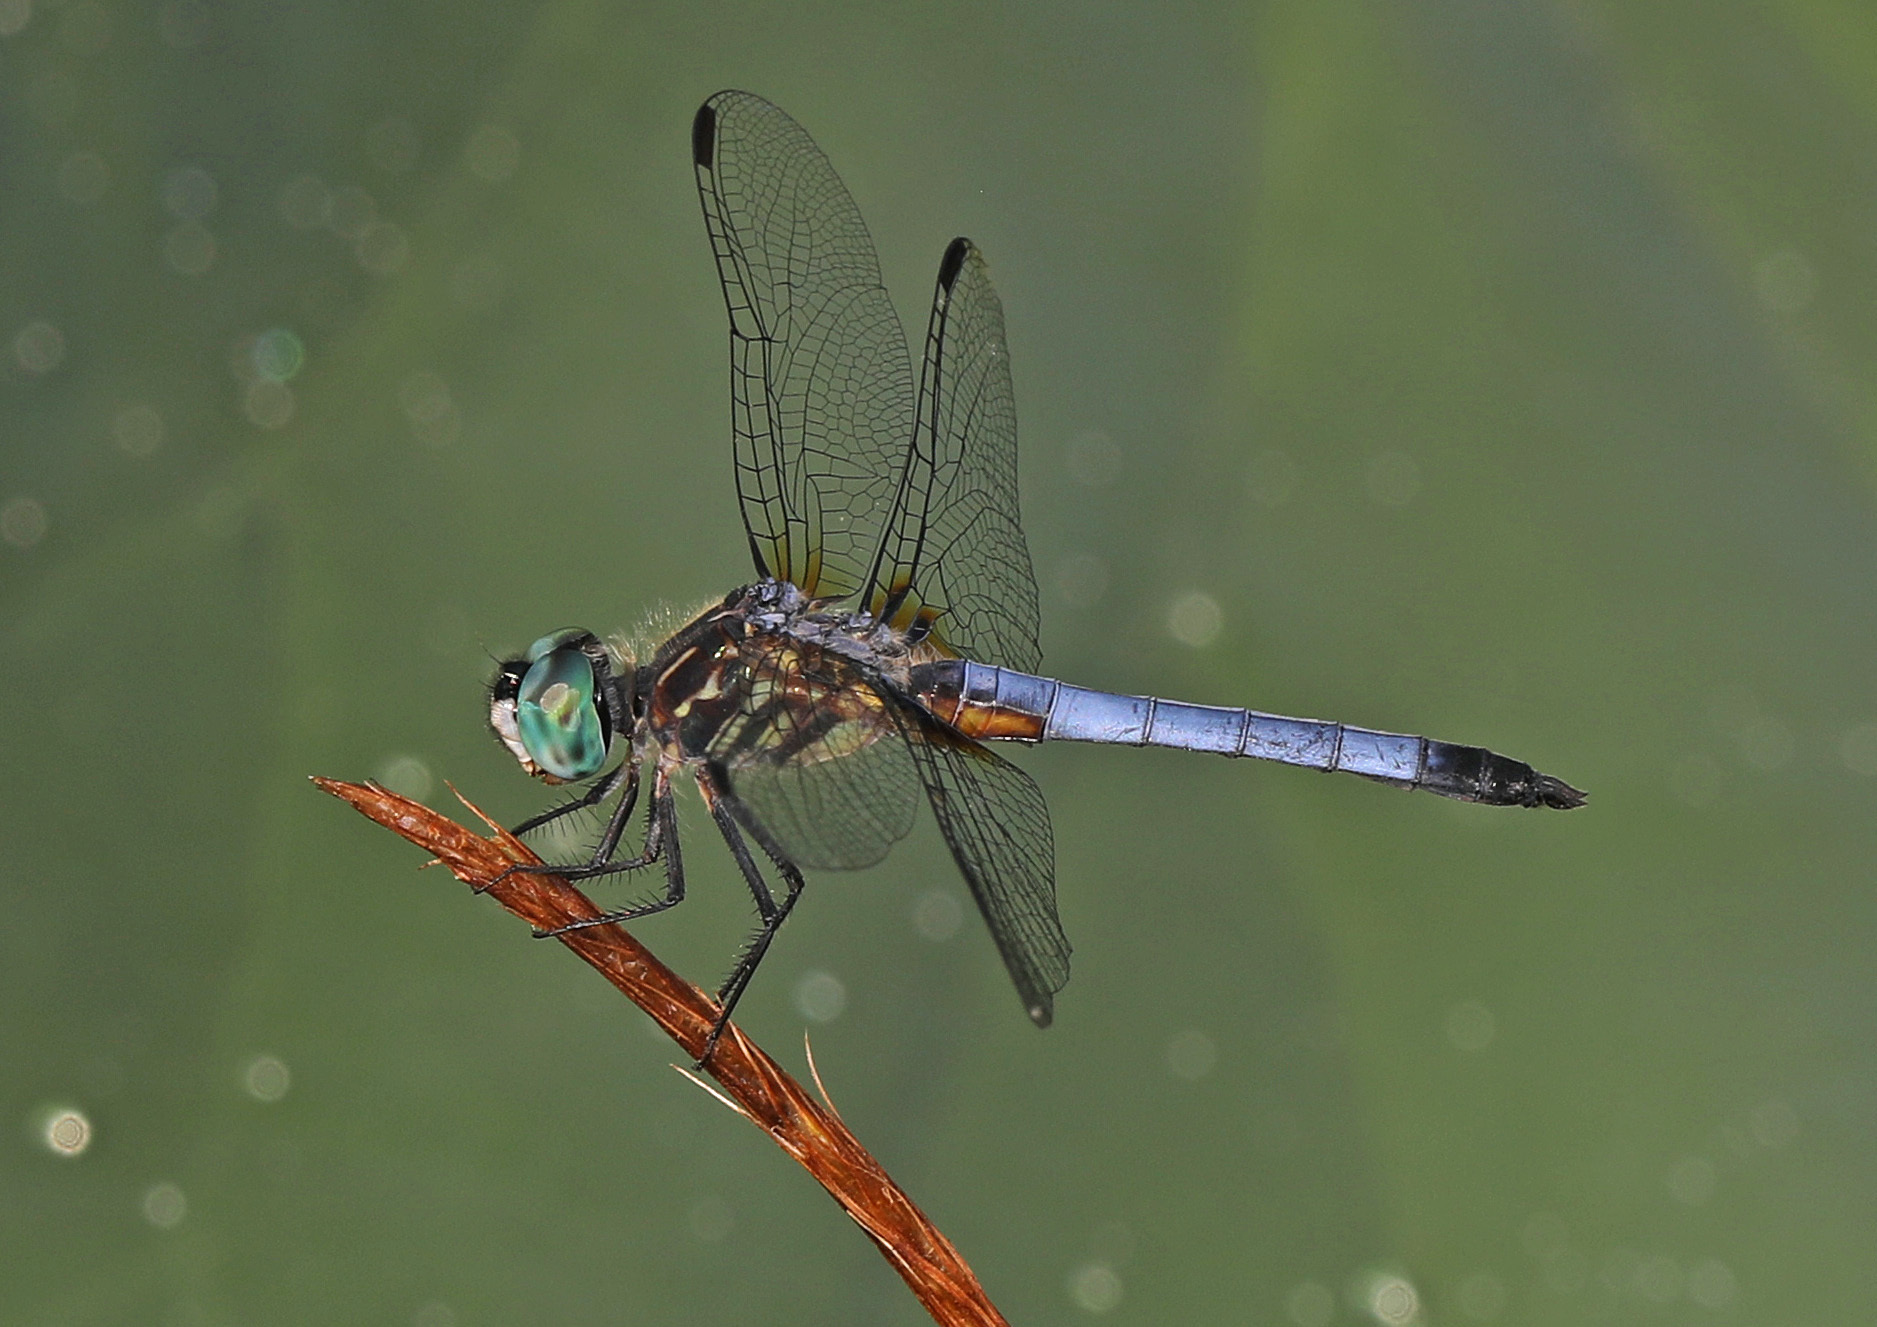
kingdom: Animalia
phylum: Arthropoda
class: Insecta
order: Odonata
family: Libellulidae
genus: Pachydiplax
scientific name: Pachydiplax longipennis
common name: Blue dasher
